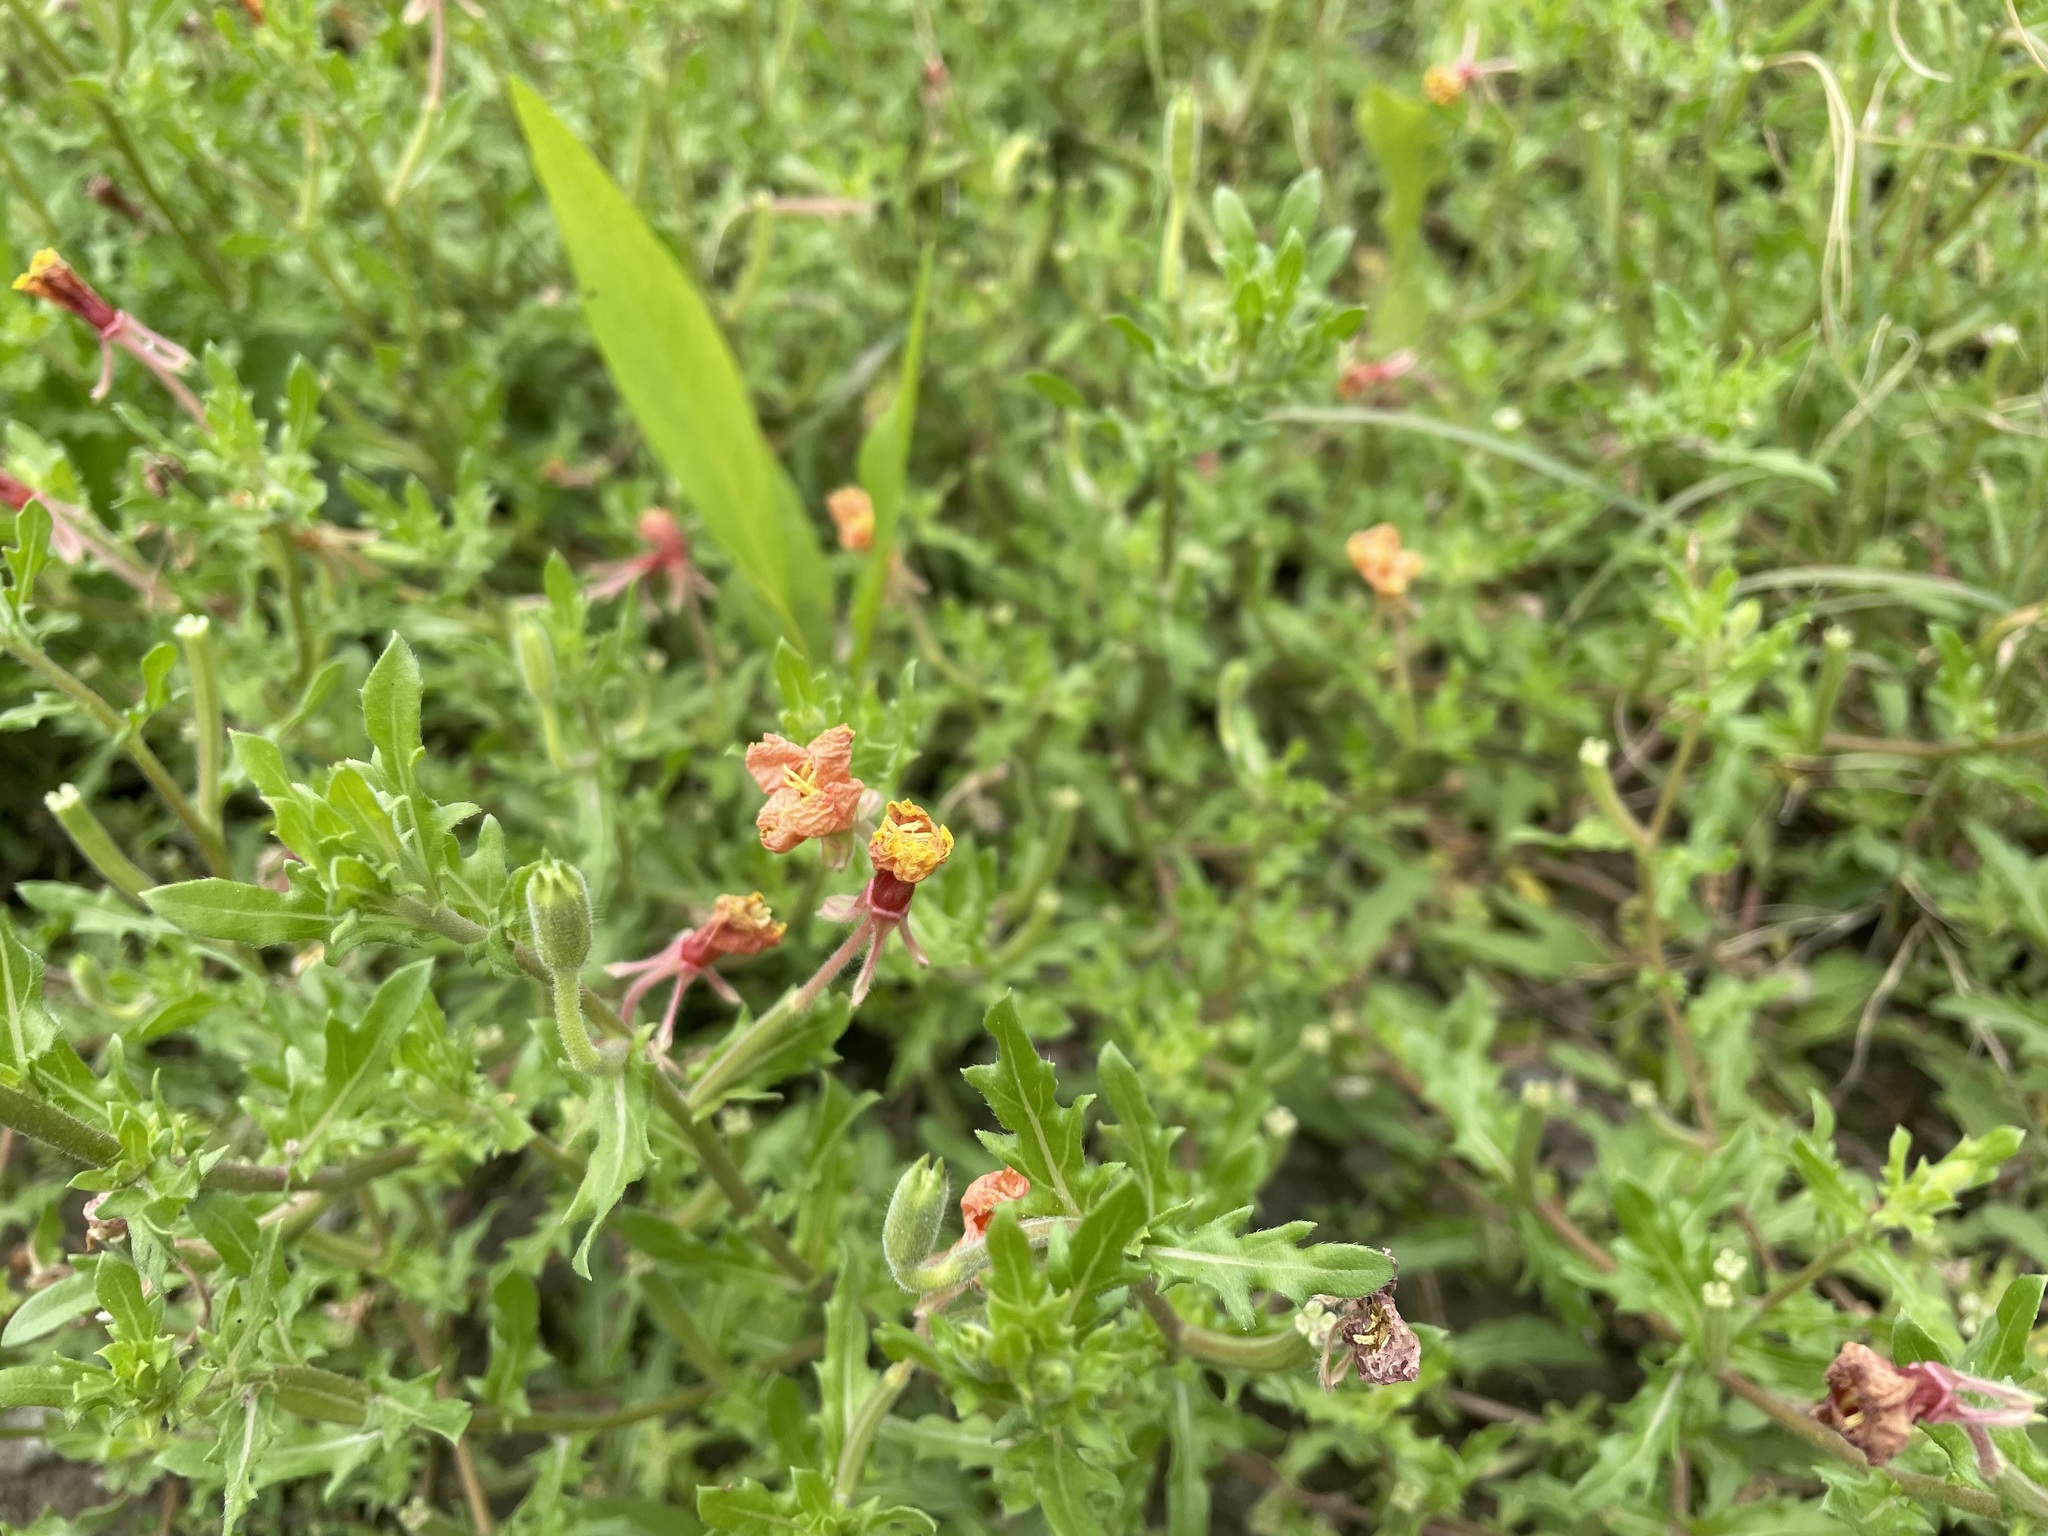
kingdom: Plantae
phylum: Tracheophyta
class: Magnoliopsida
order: Myrtales
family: Onagraceae
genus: Oenothera
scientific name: Oenothera laciniata
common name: Cut-leaved evening-primrose
